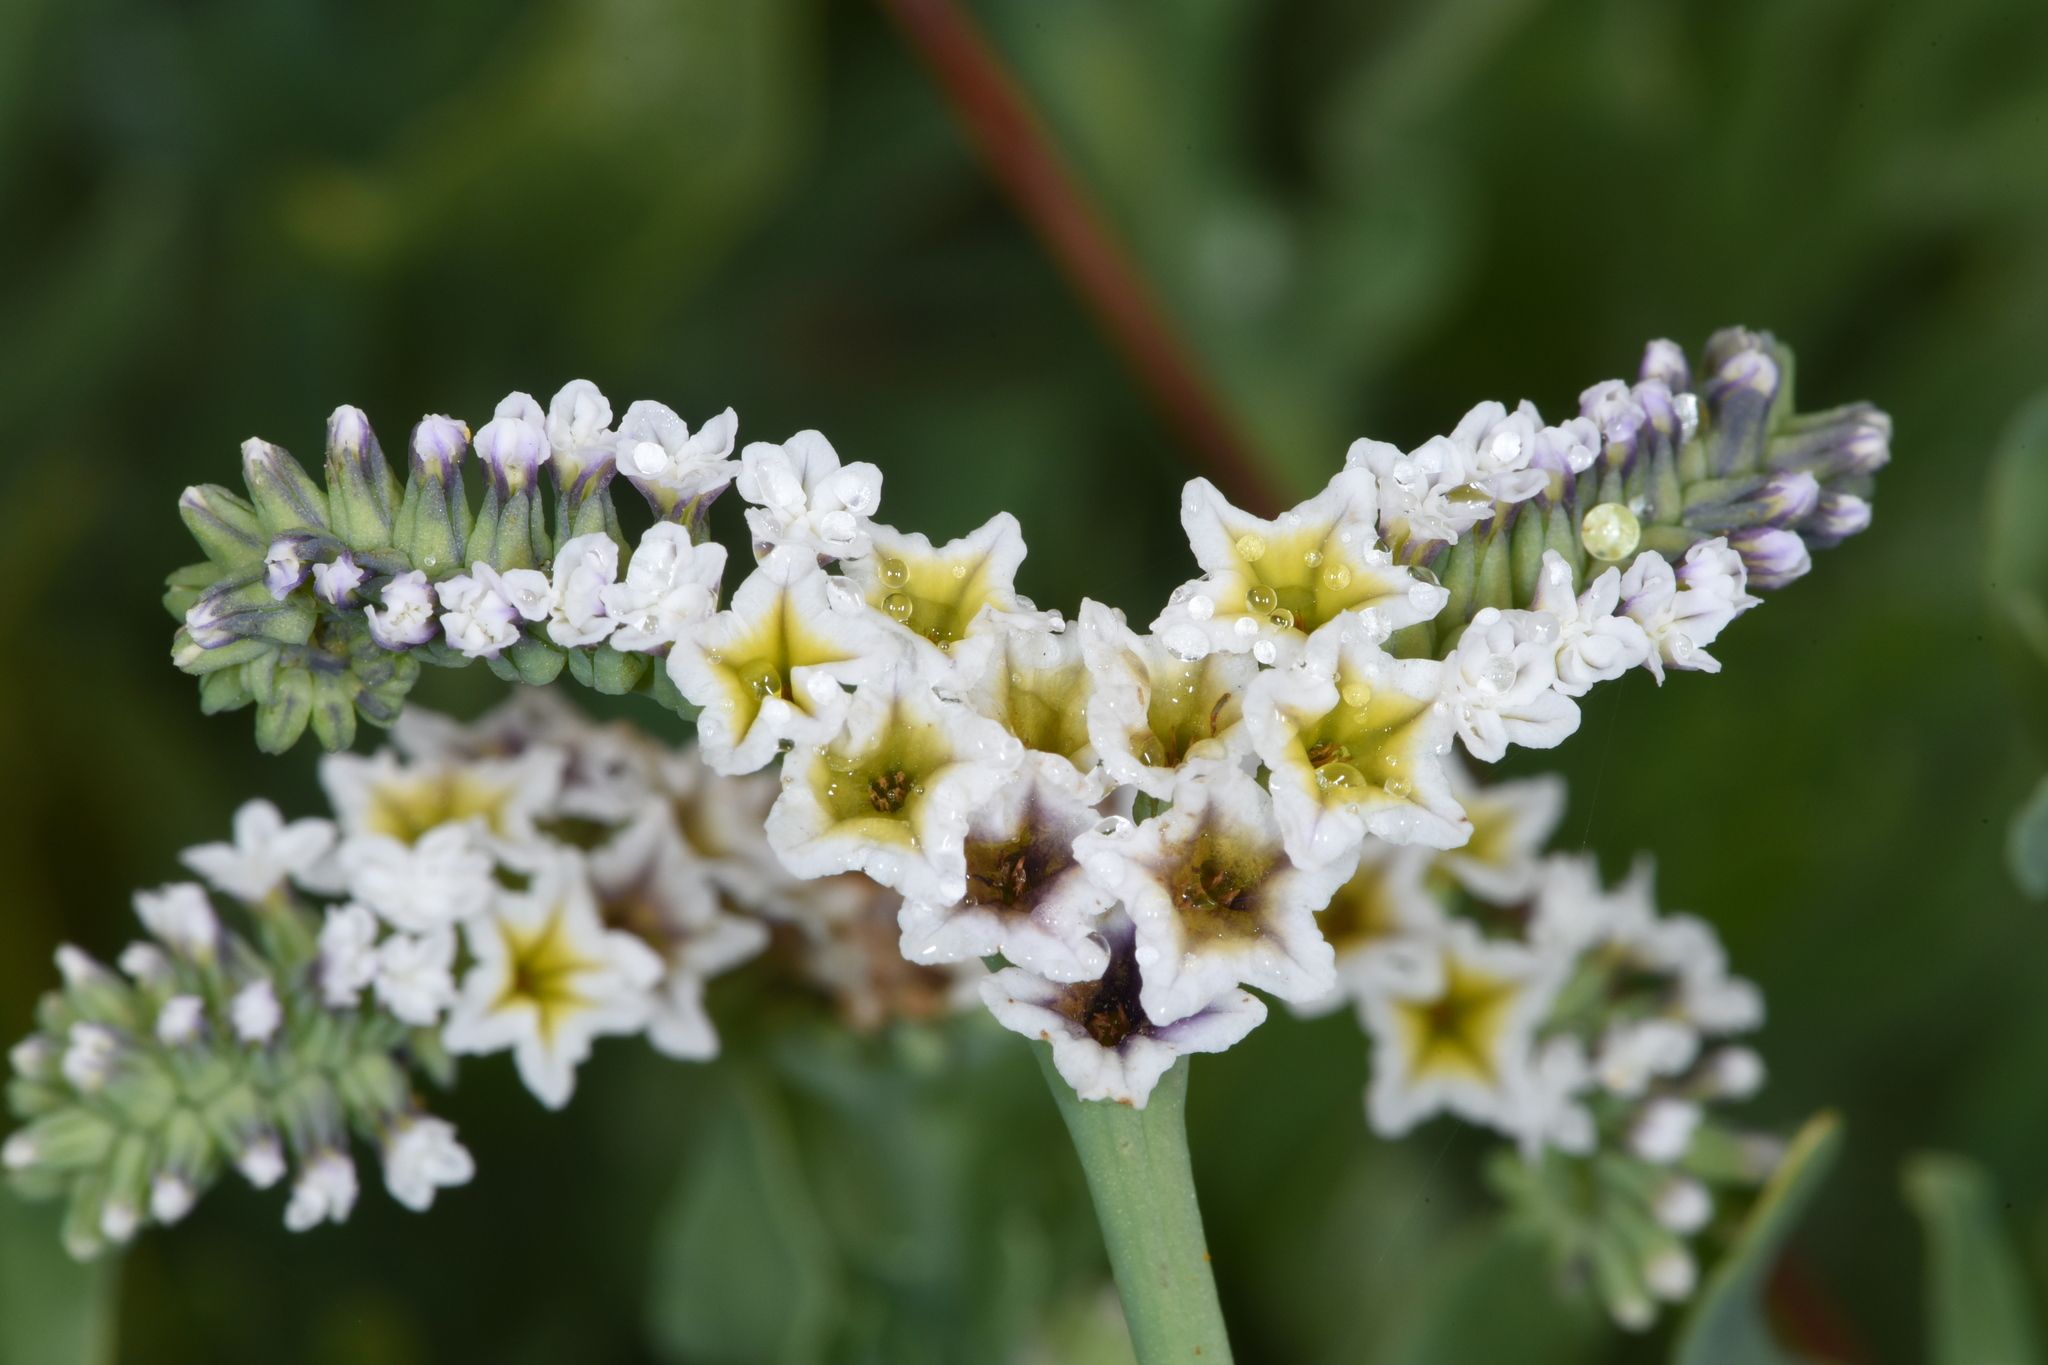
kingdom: Plantae
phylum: Tracheophyta
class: Magnoliopsida
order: Boraginales
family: Heliotropiaceae
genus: Heliotropium
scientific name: Heliotropium curassavicum
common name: Seaside heliotrope
